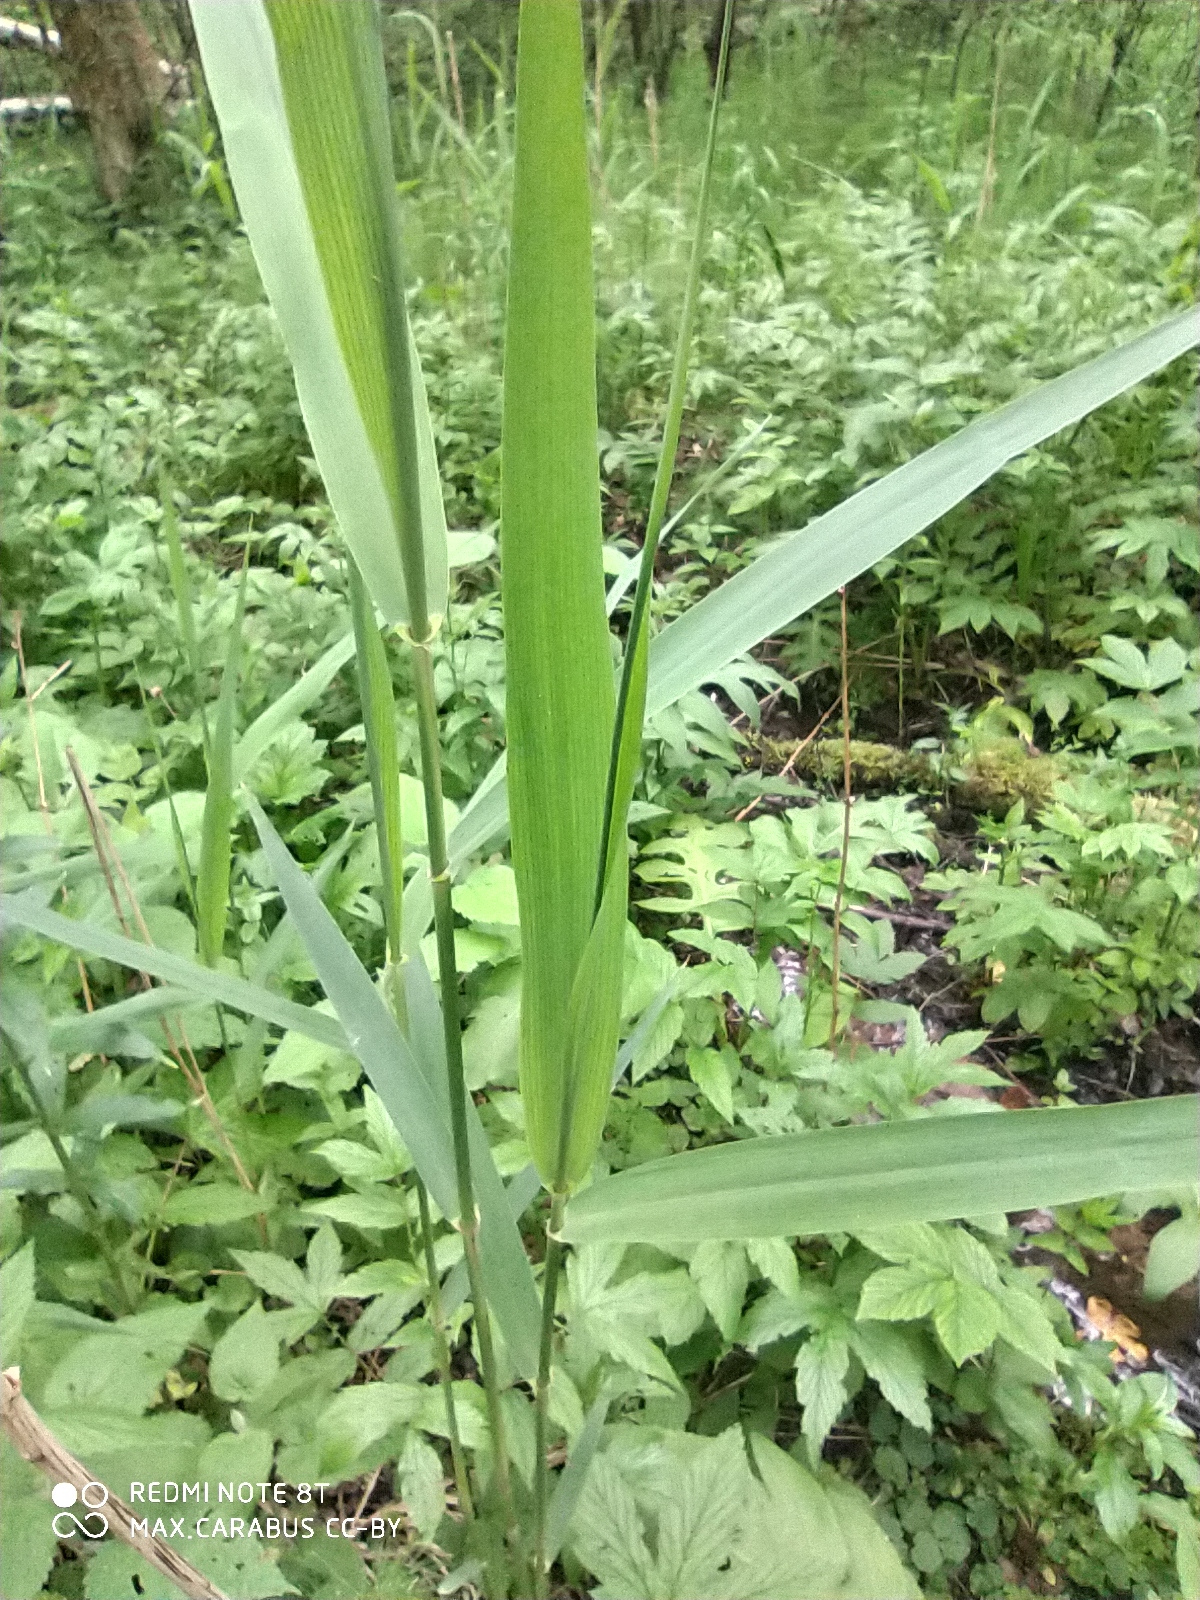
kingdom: Plantae
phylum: Tracheophyta
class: Liliopsida
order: Poales
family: Poaceae
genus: Phragmites
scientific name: Phragmites australis
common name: Common reed
